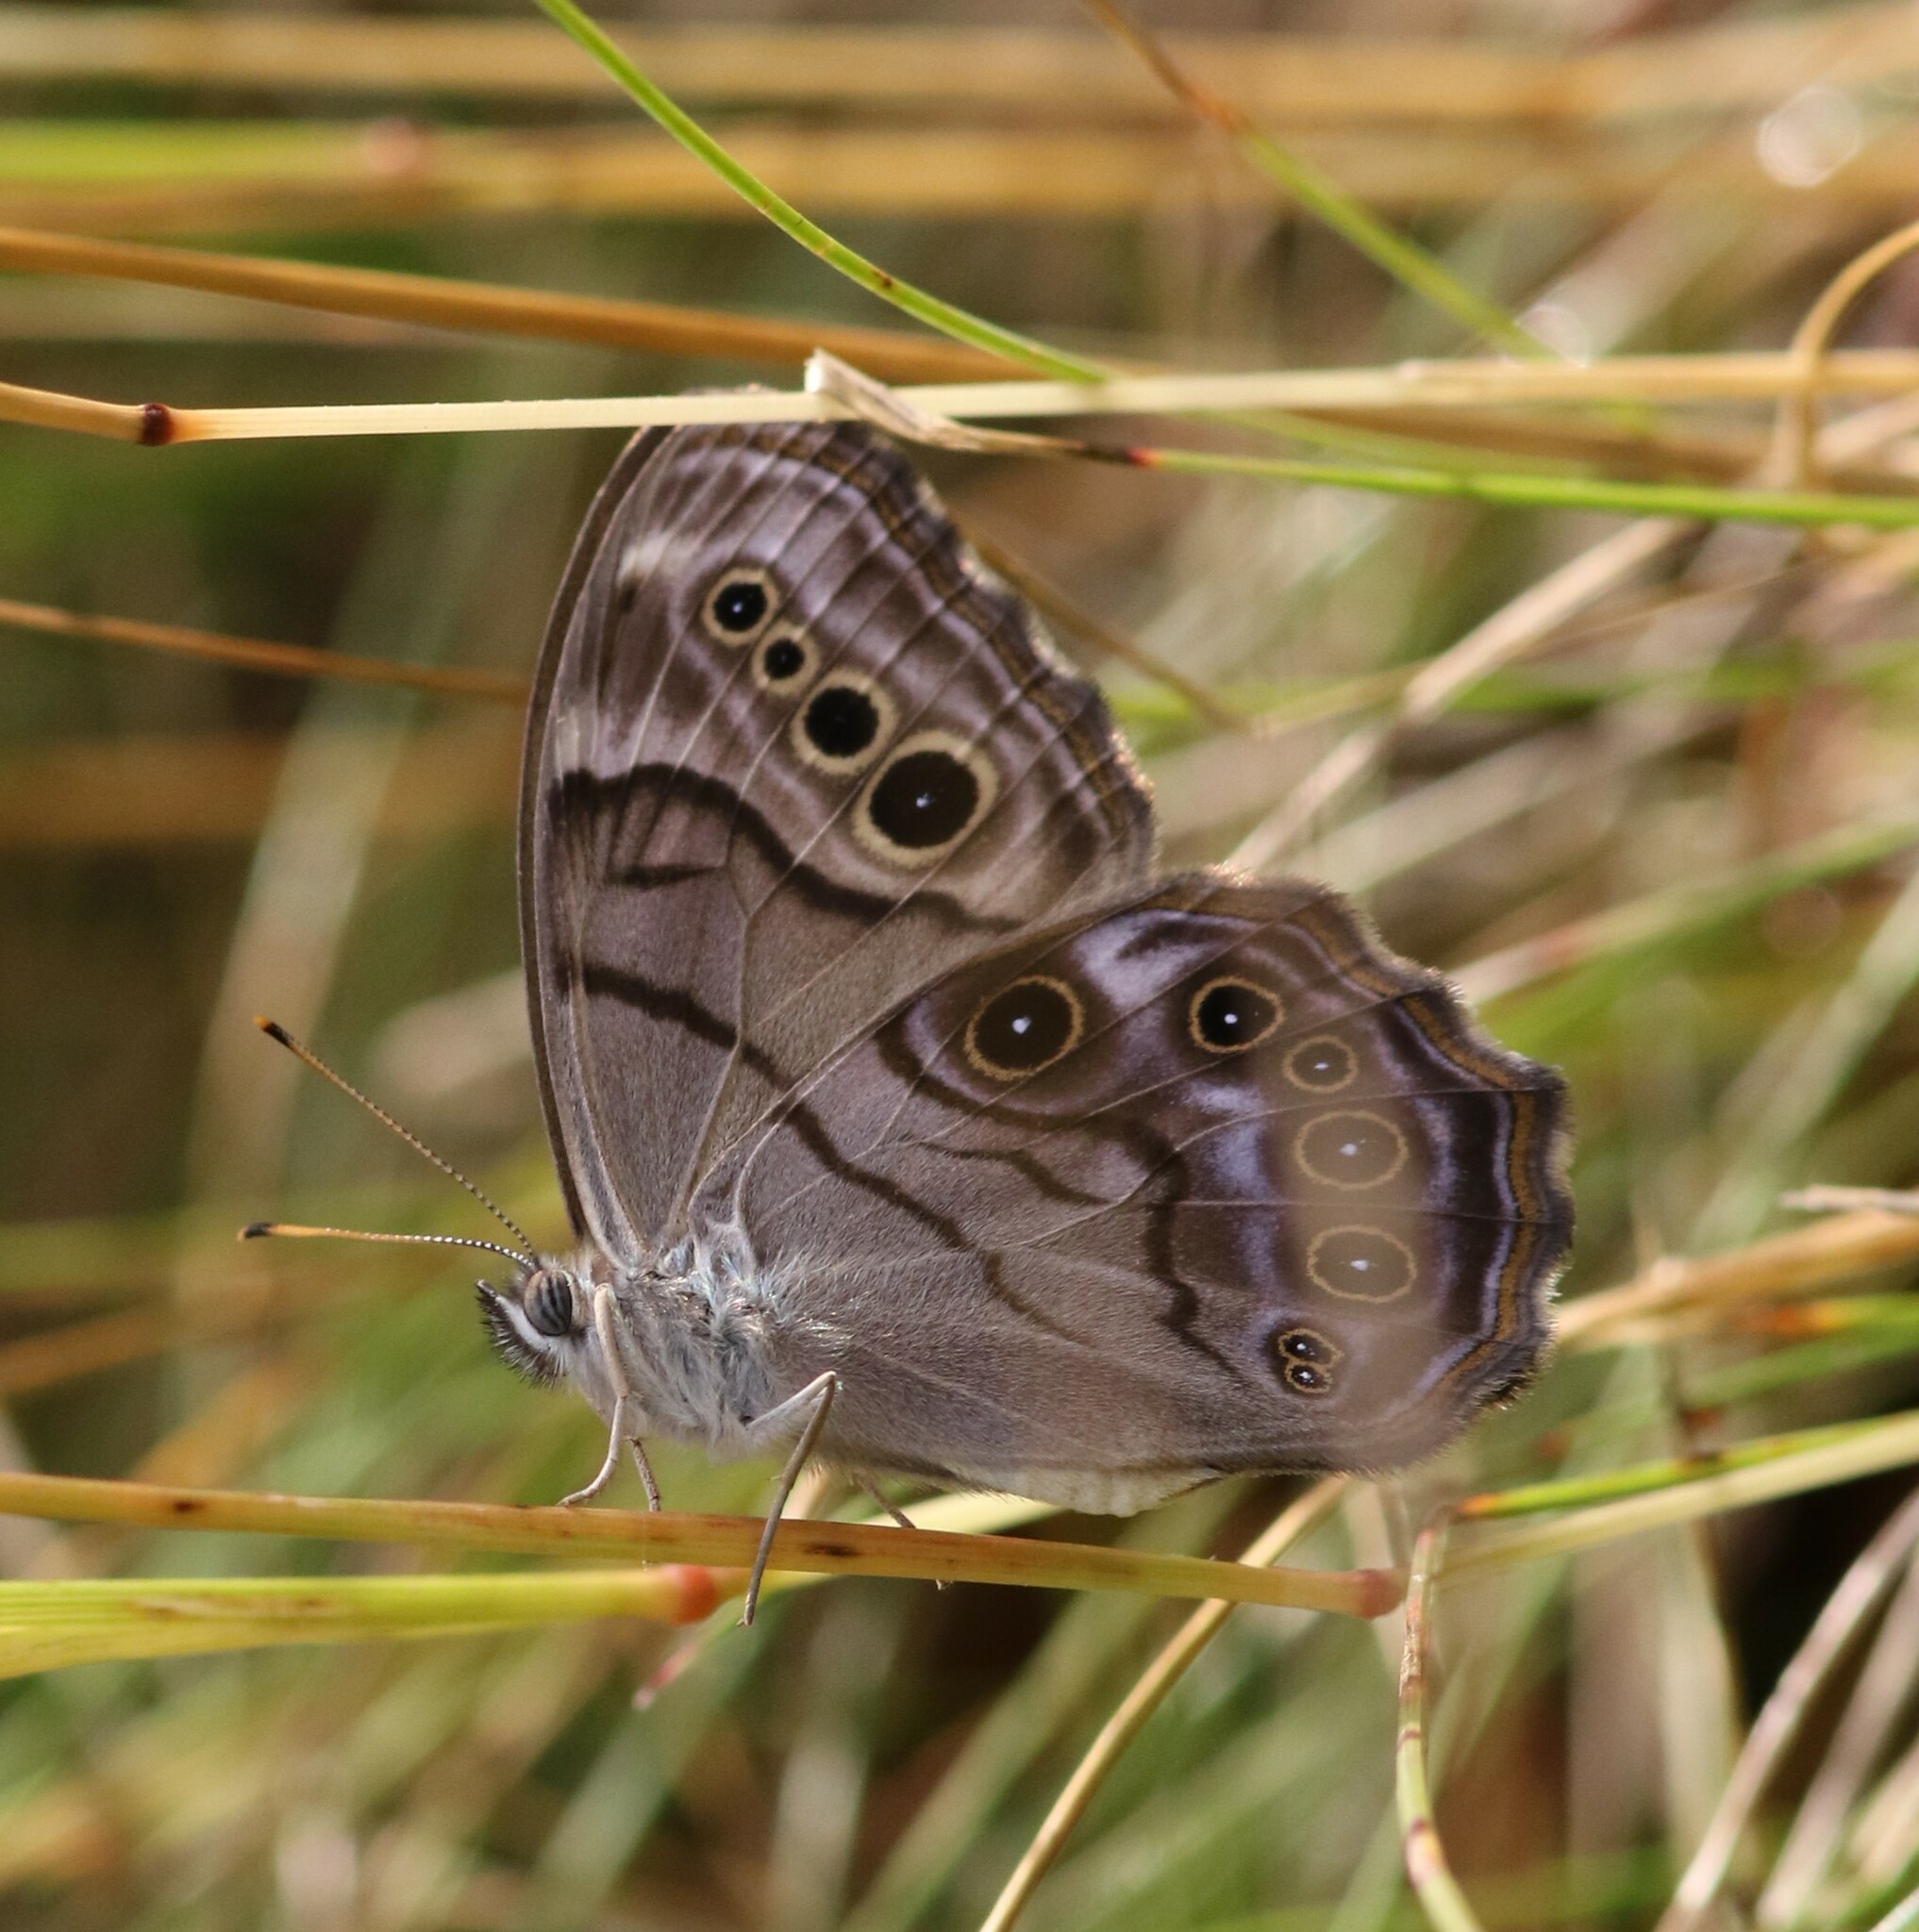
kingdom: Animalia
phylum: Arthropoda
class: Insecta
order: Lepidoptera
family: Nymphalidae
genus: Lethe
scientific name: Lethe anthedon
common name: Northern pearly-eye
